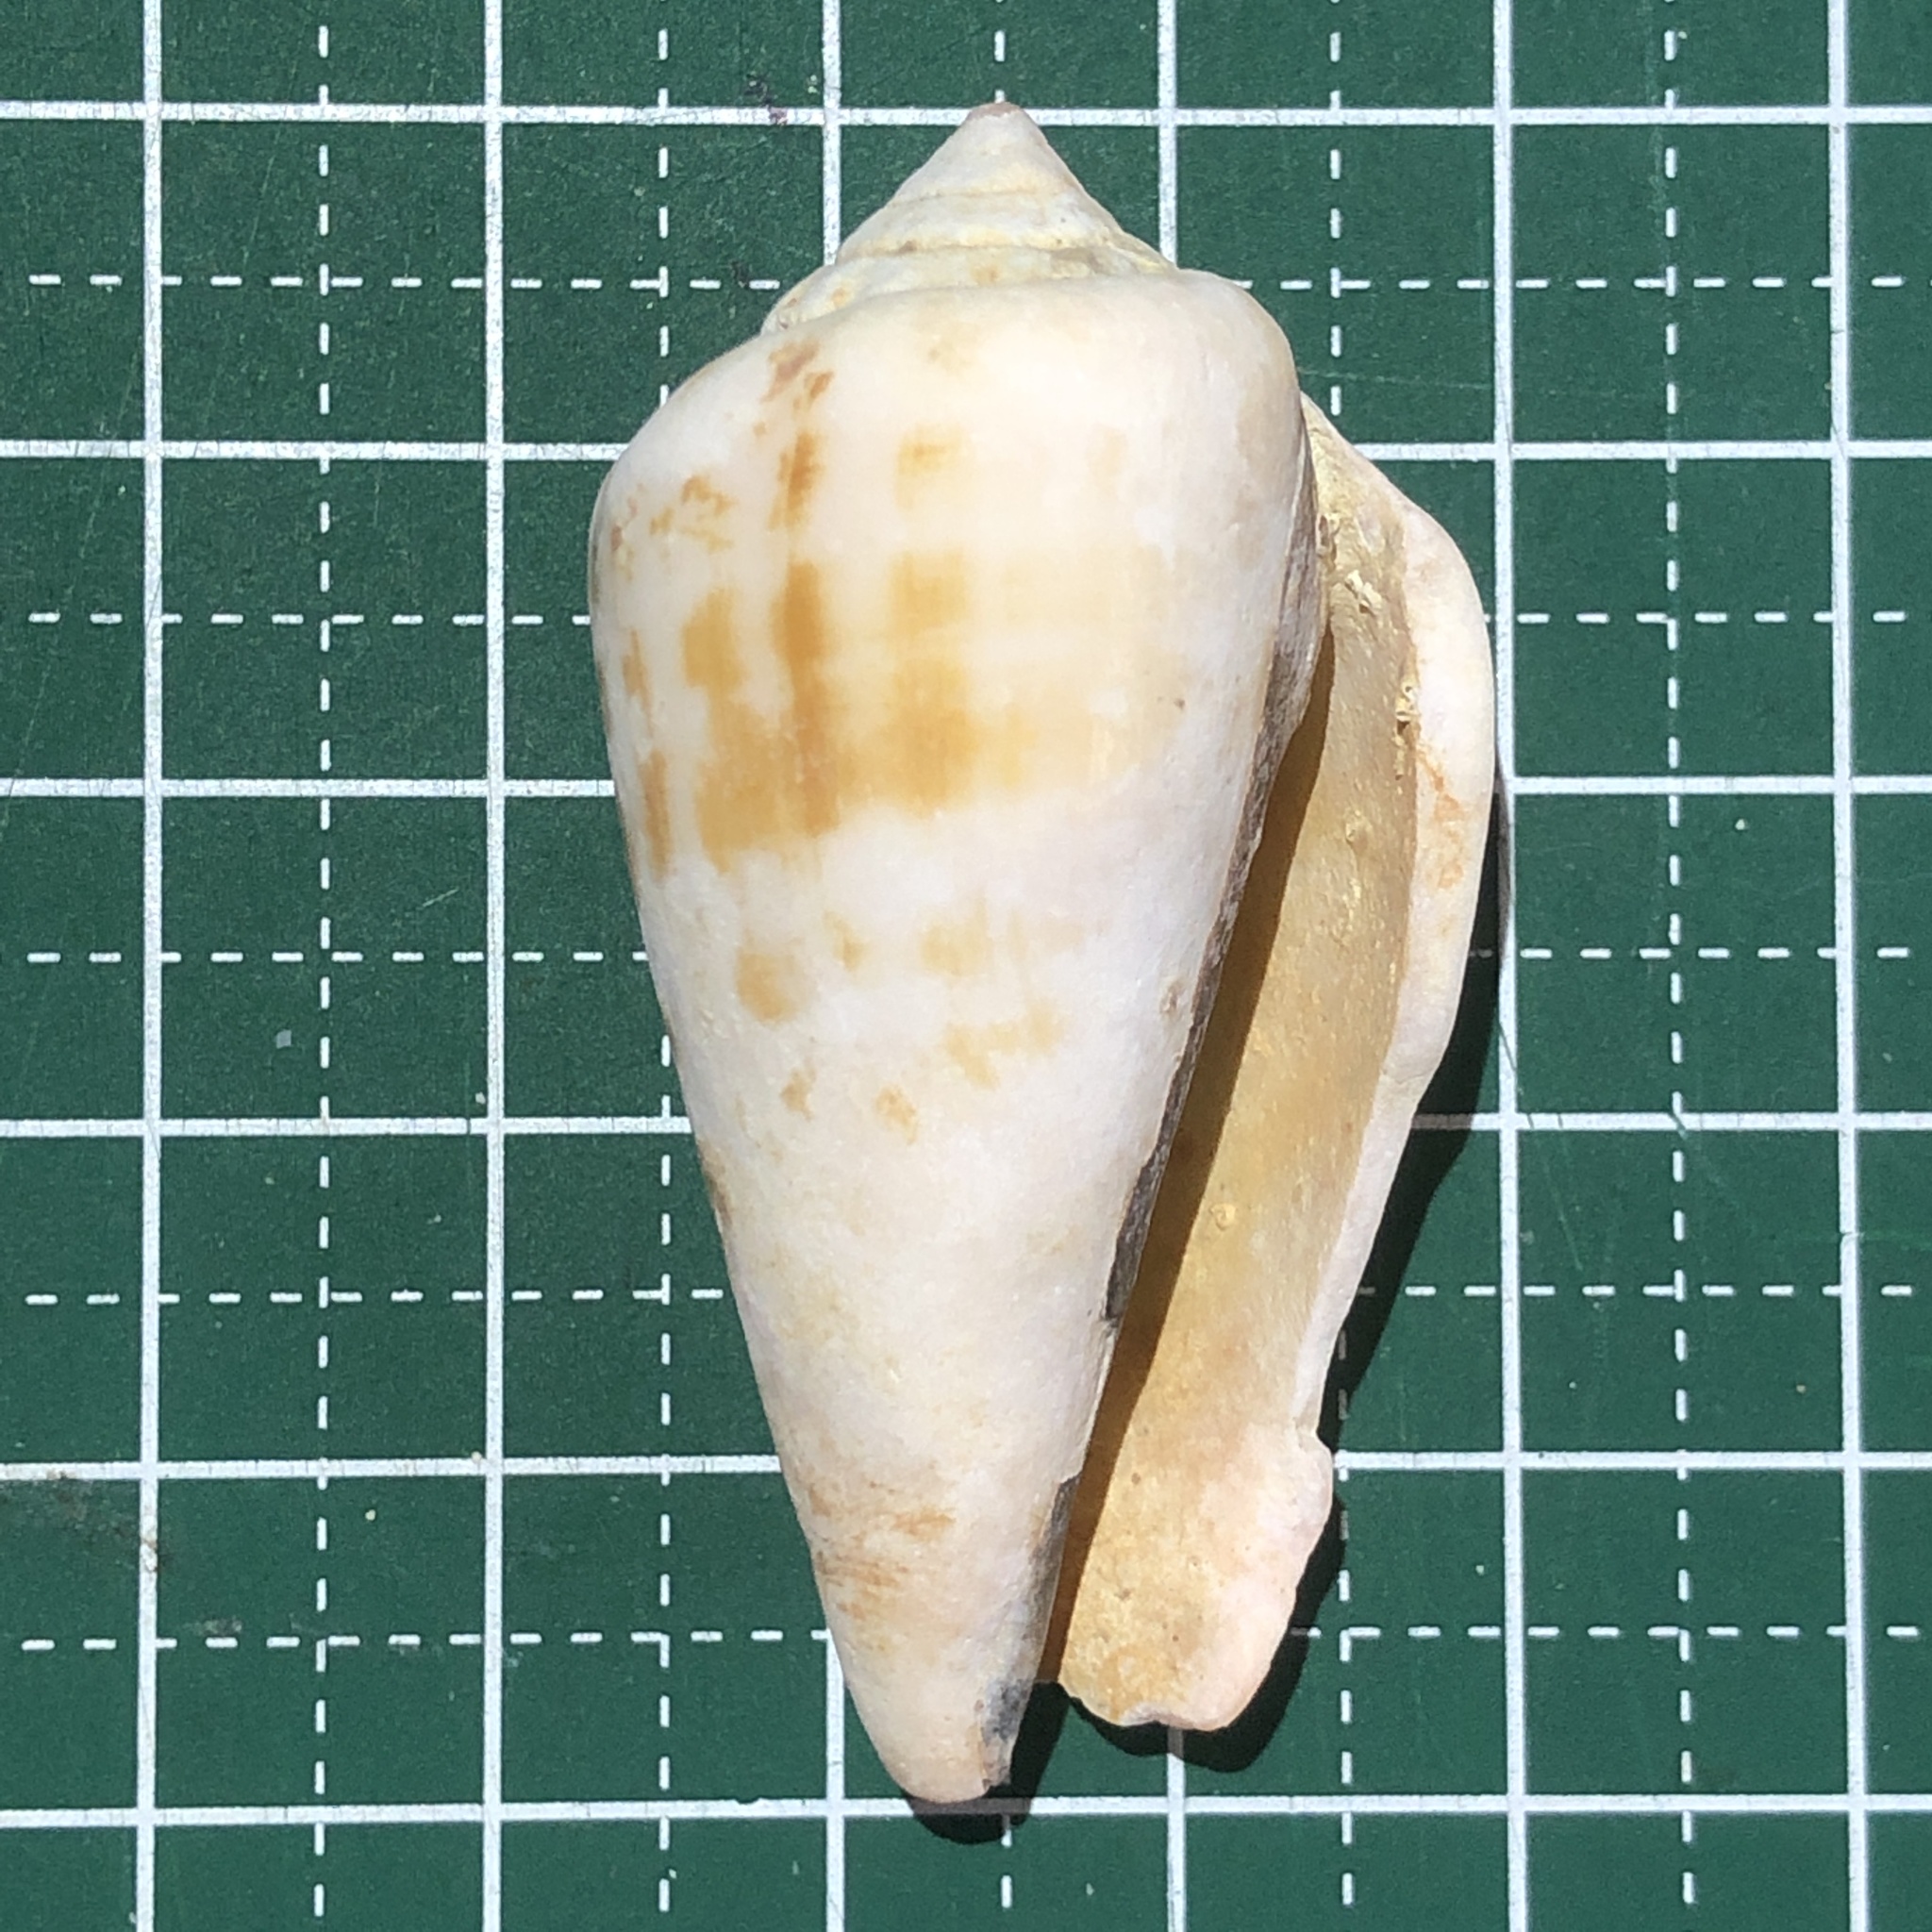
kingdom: Animalia
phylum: Mollusca
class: Gastropoda
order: Littorinimorpha
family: Strombidae
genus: Conomurex
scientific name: Conomurex luhuanus
